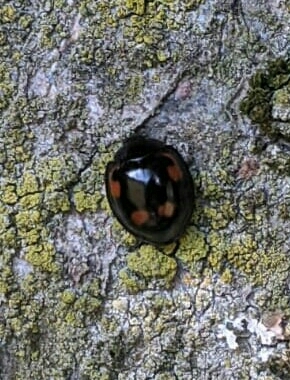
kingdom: Animalia
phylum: Arthropoda
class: Insecta
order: Coleoptera
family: Coccinellidae
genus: Brumus
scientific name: Brumus quadripustulatus
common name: Ladybird beetle
